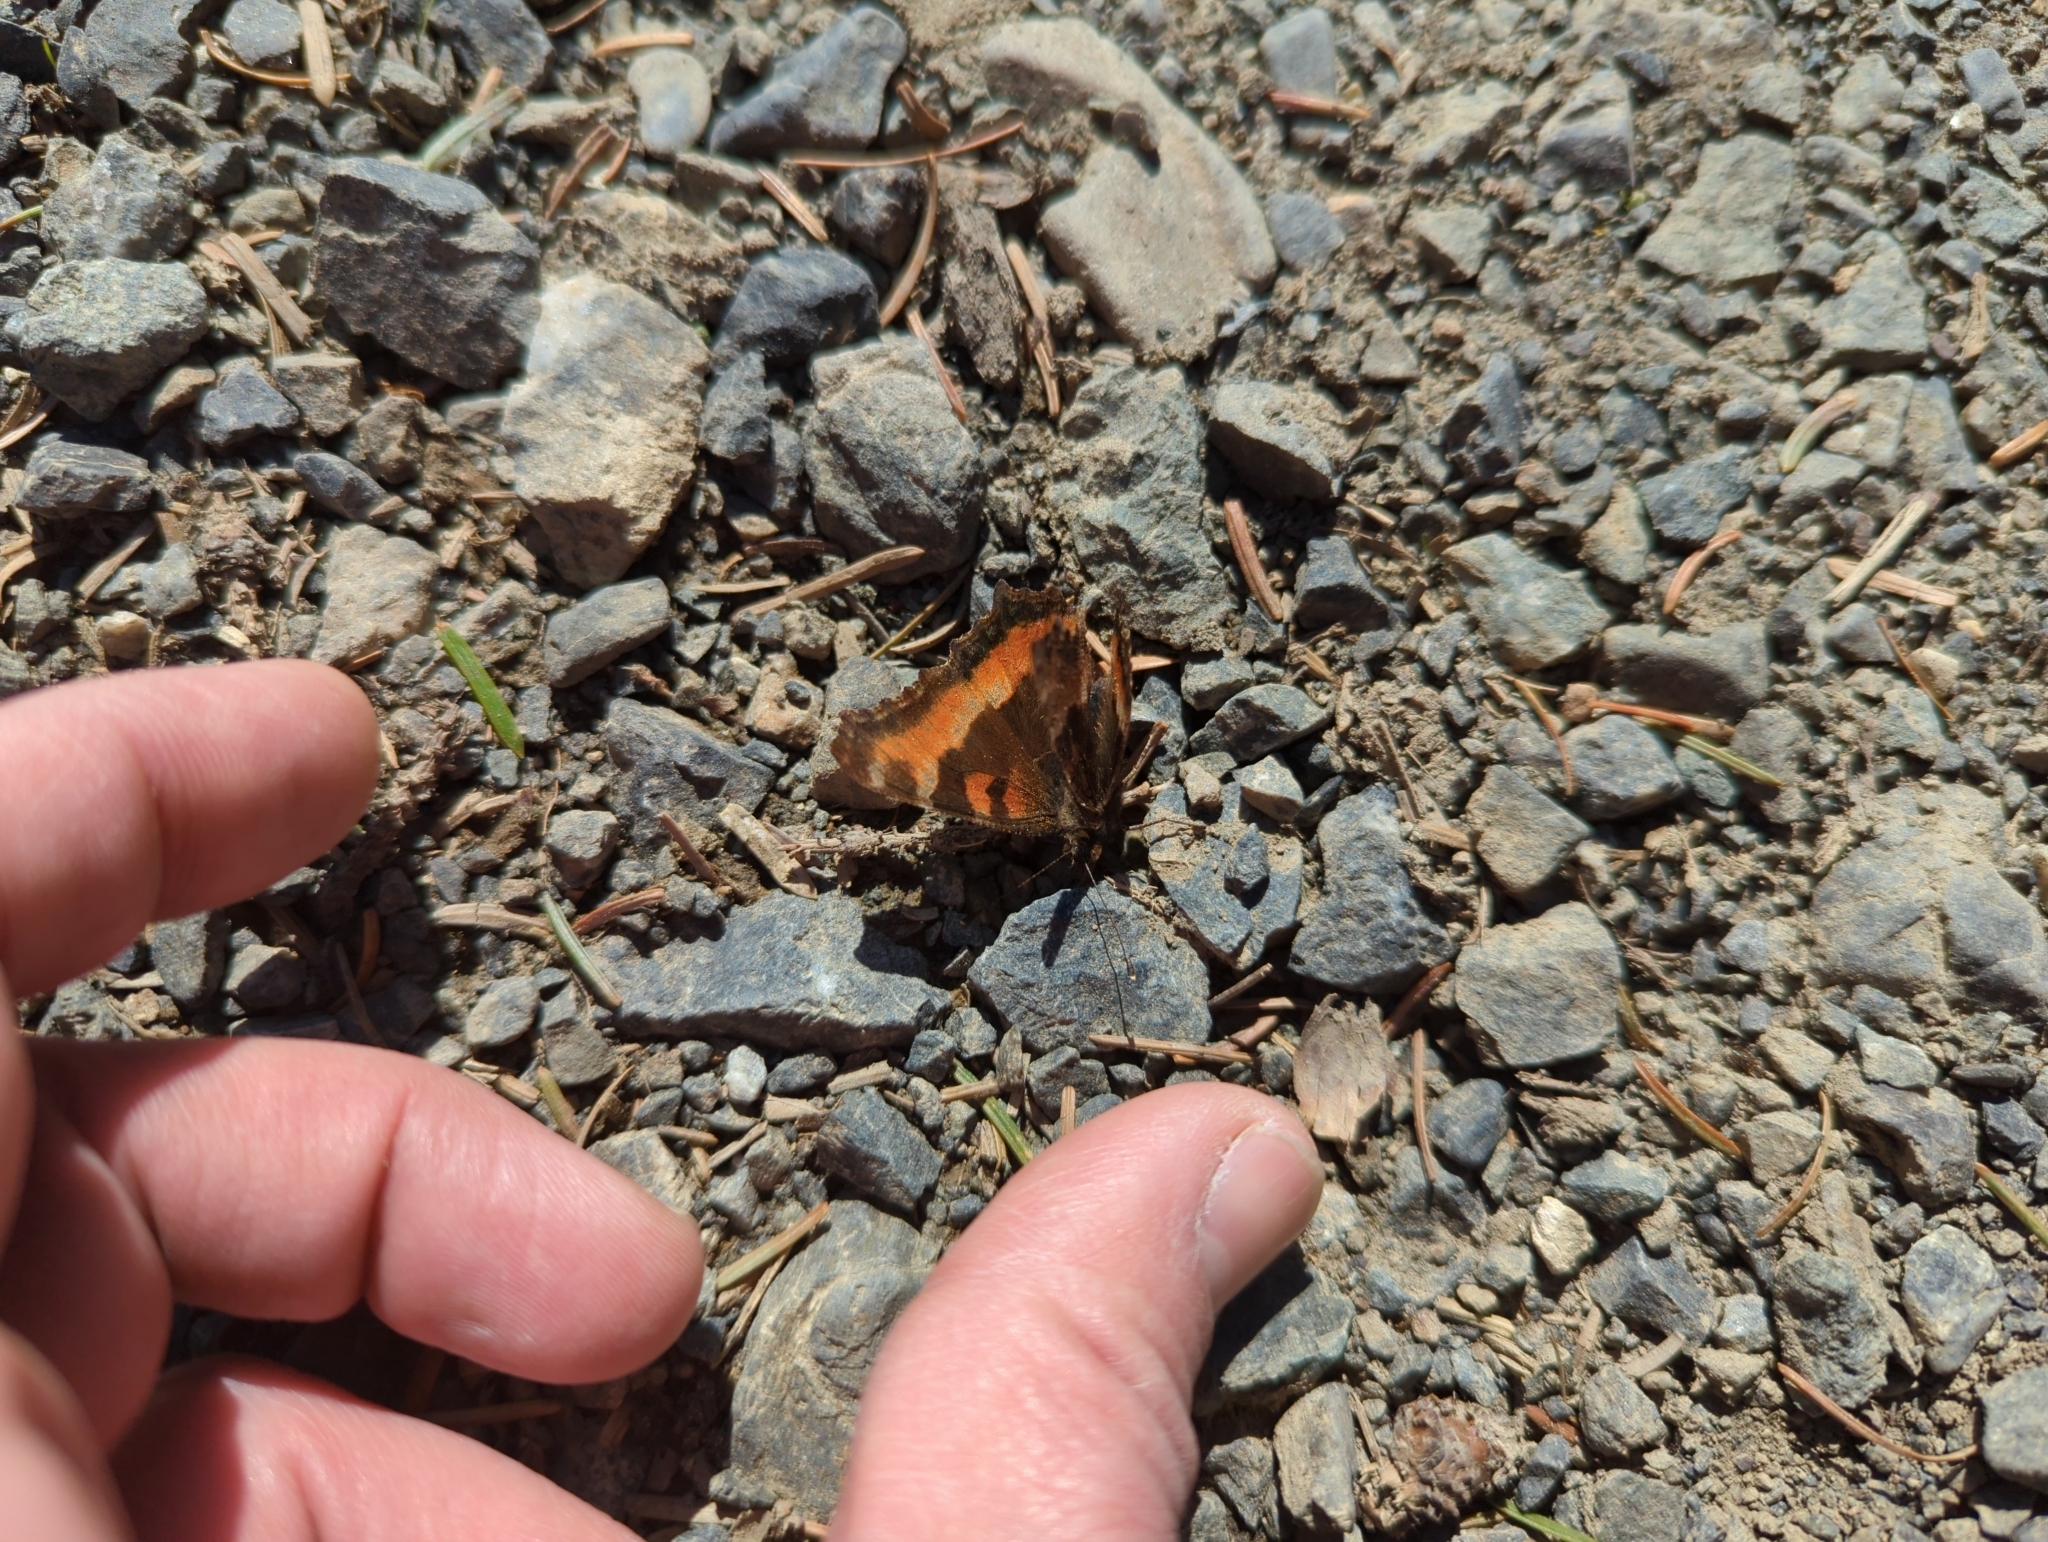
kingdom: Animalia
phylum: Arthropoda
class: Insecta
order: Lepidoptera
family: Nymphalidae
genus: Aglais
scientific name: Aglais milberti
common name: Milbert's tortoiseshell
